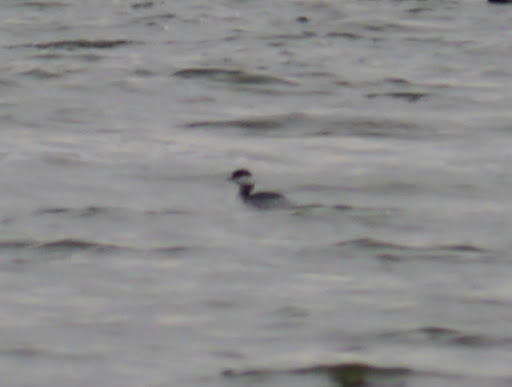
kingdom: Animalia
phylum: Chordata
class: Aves
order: Podicipediformes
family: Podicipedidae
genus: Podiceps
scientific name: Podiceps auritus
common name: Horned grebe
